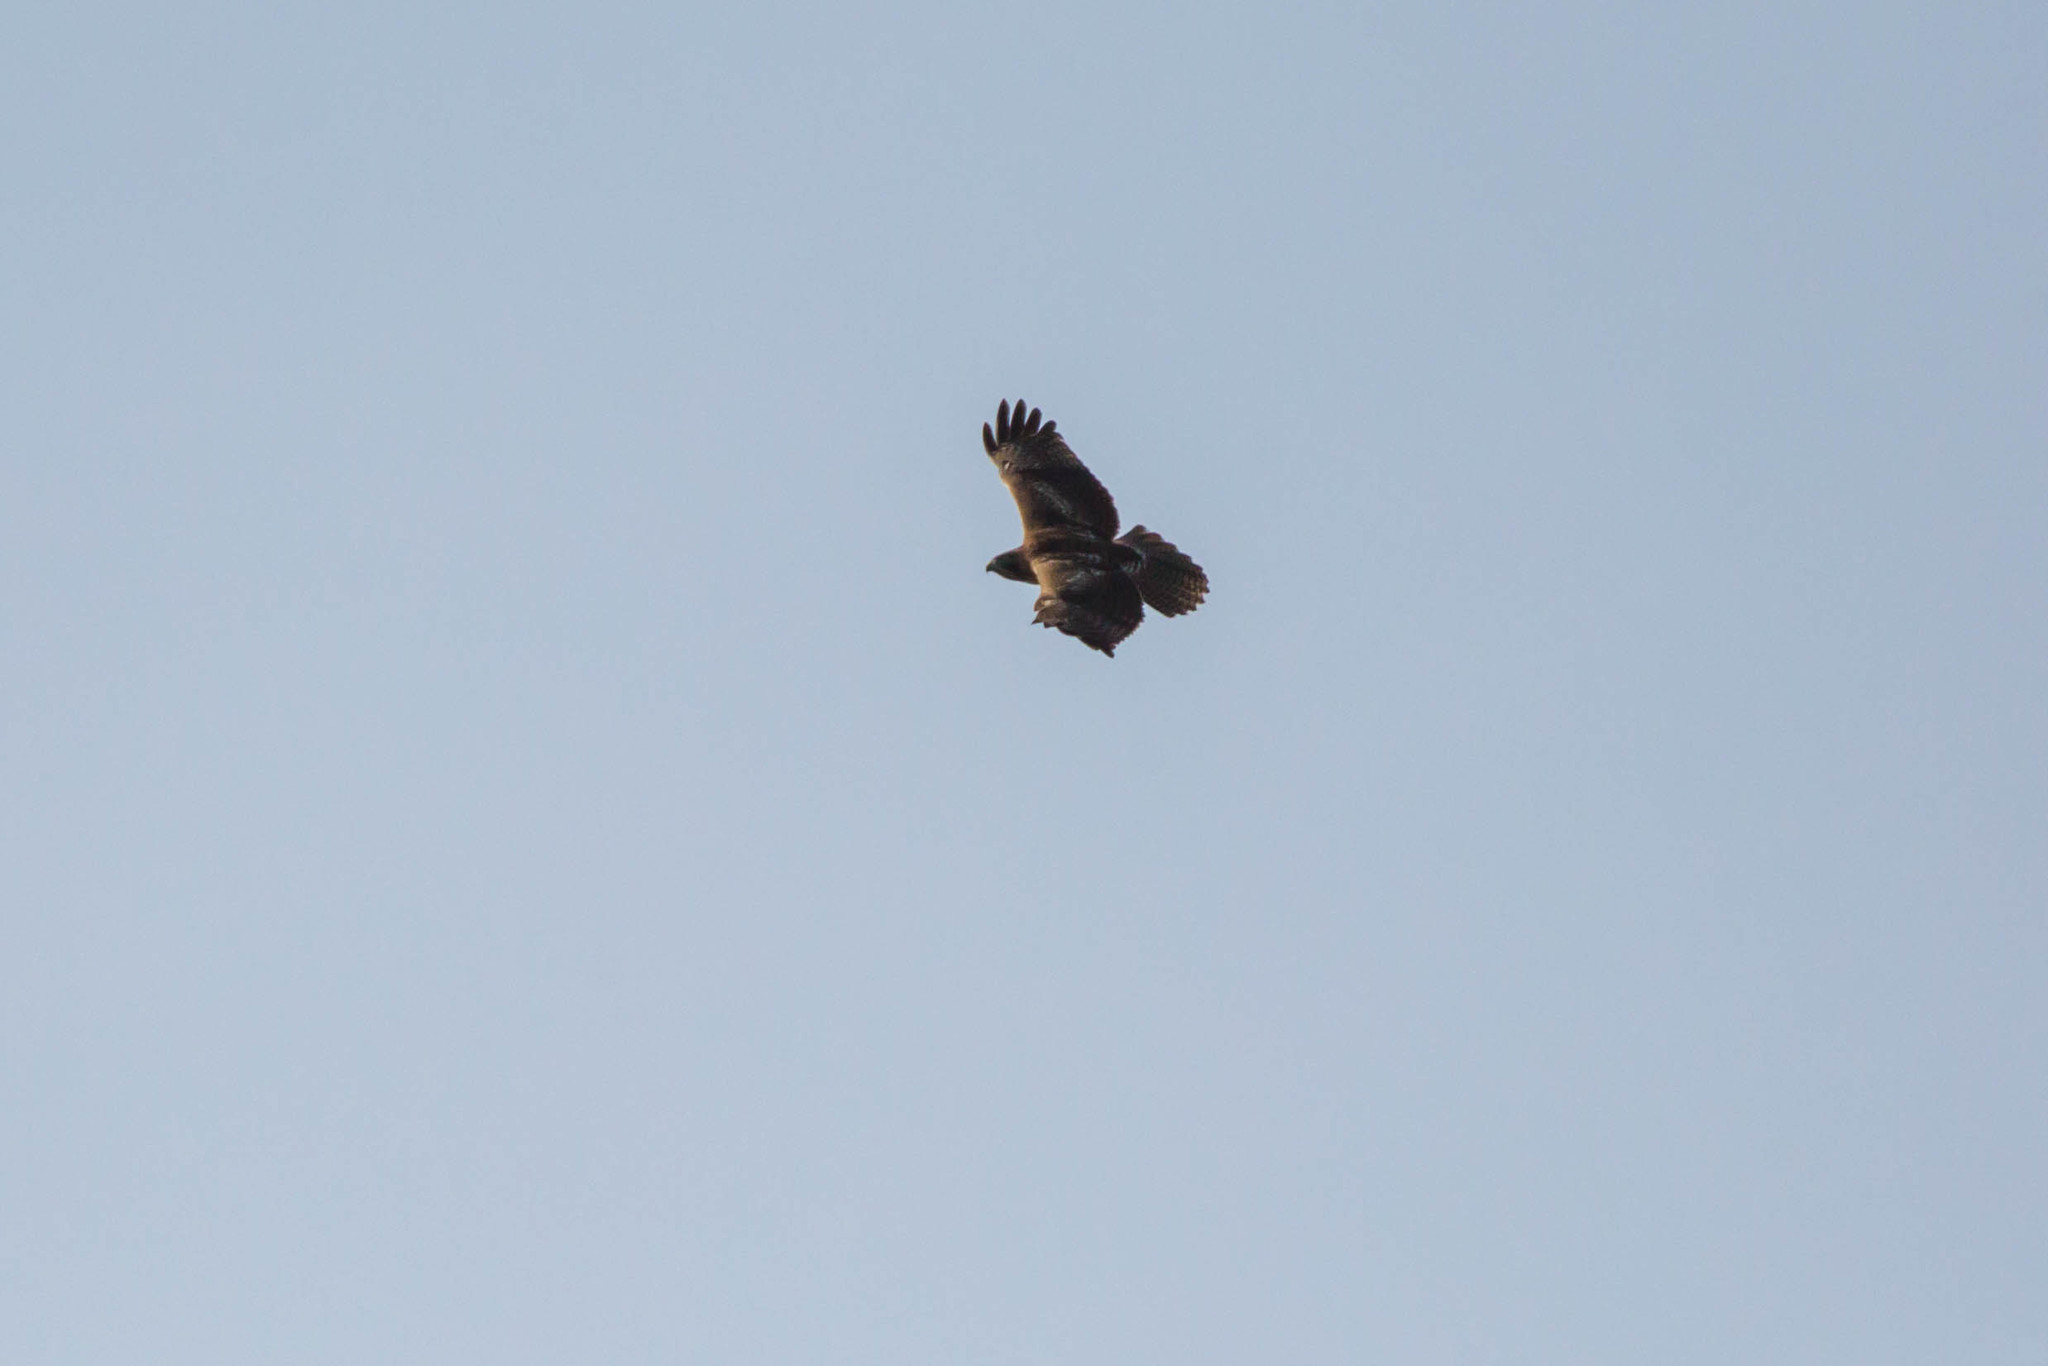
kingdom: Animalia
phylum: Chordata
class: Aves
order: Accipitriformes
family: Accipitridae
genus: Buteo
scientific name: Buteo jamaicensis
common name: Red-tailed hawk
